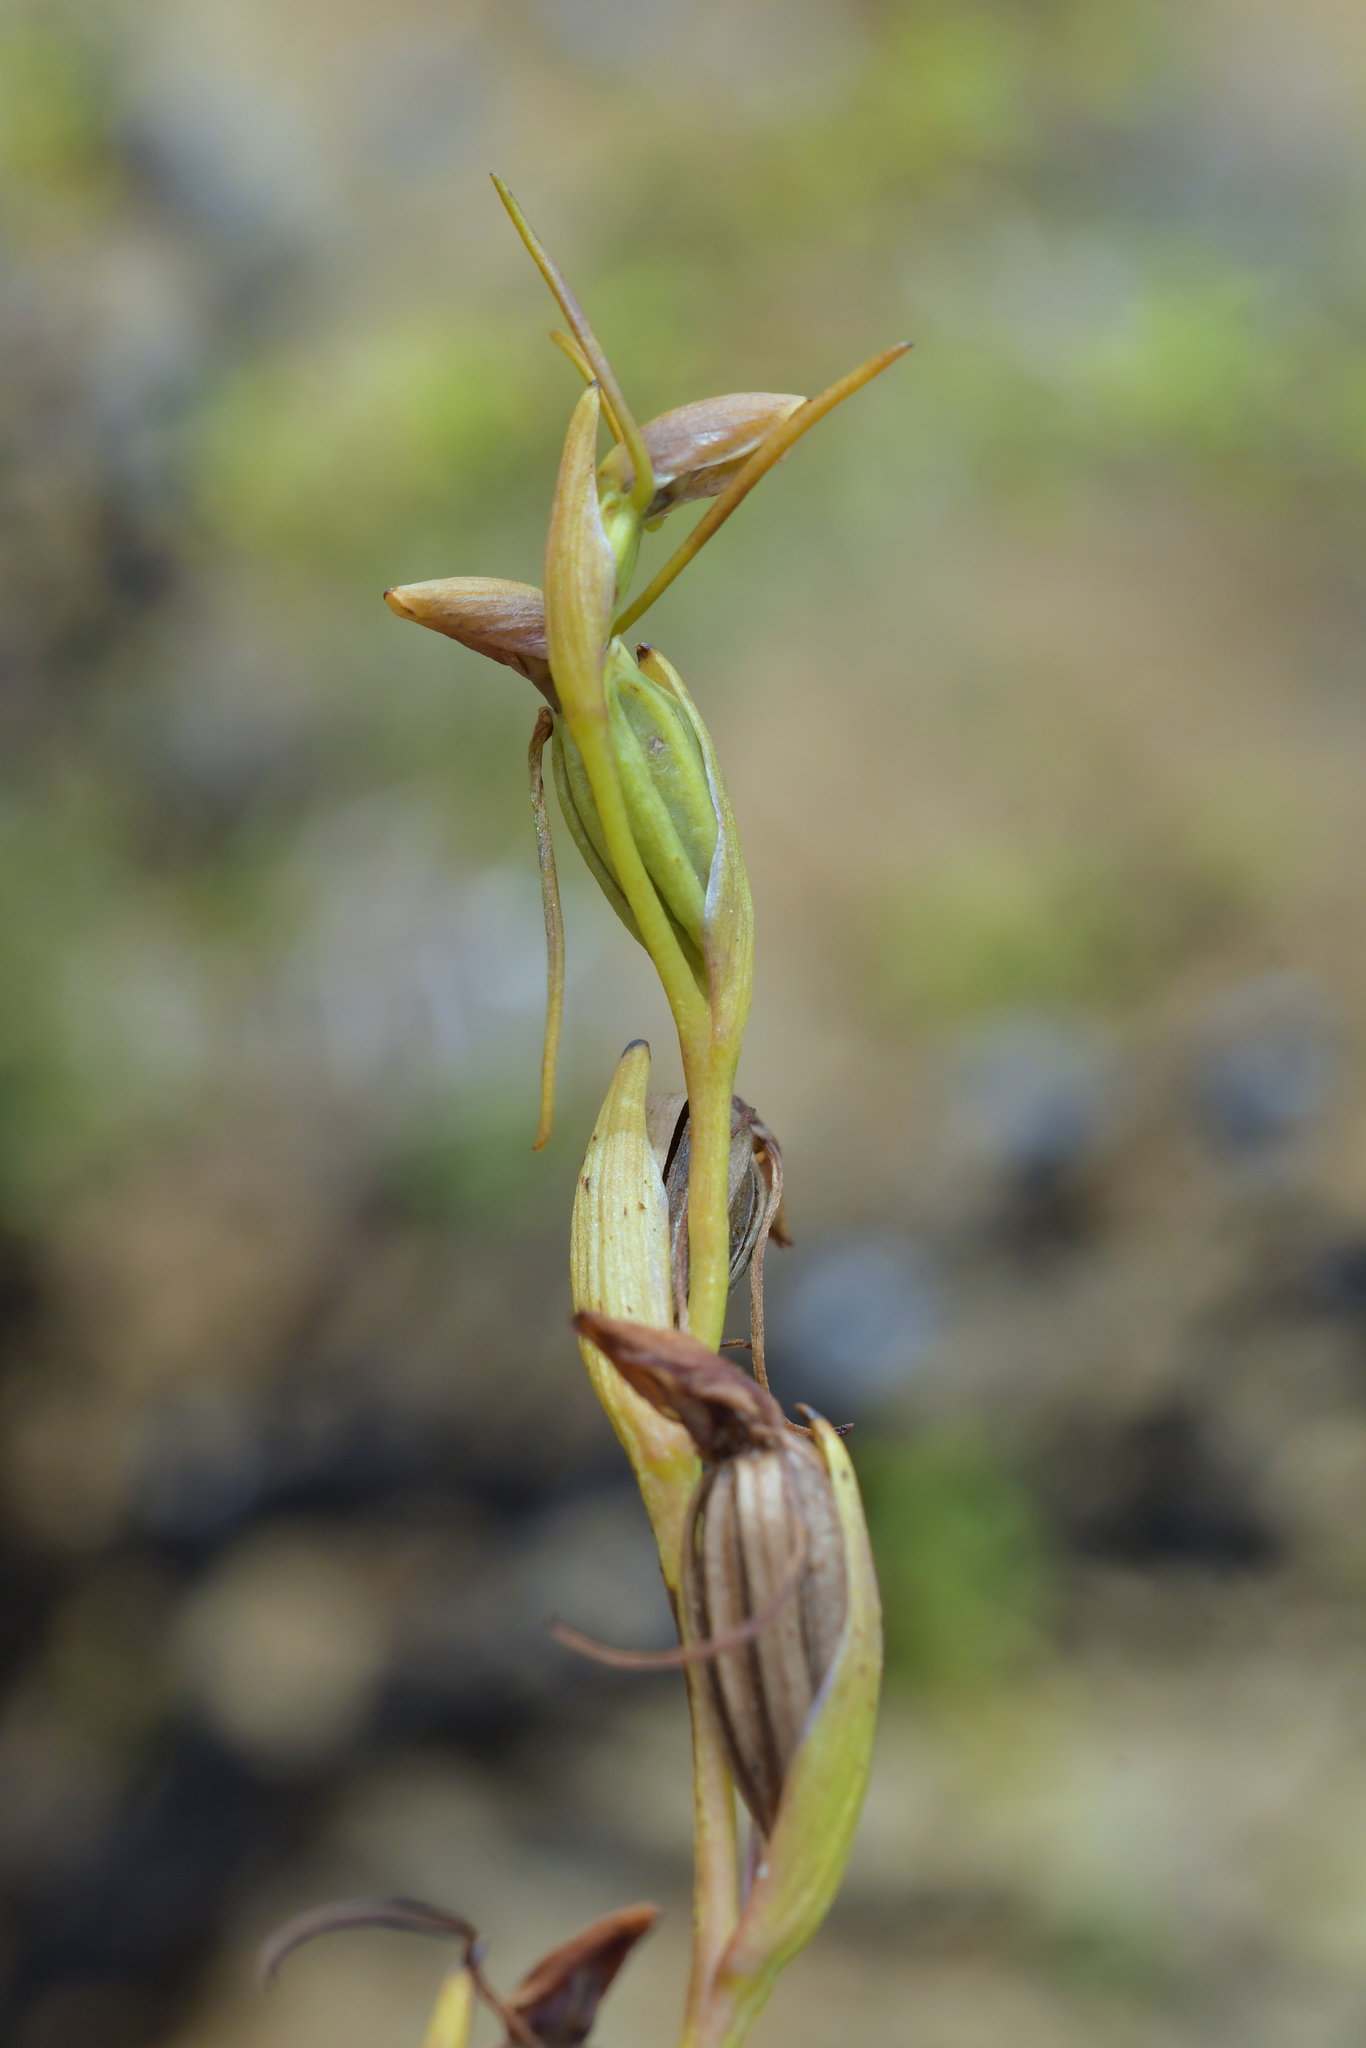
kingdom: Plantae
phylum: Tracheophyta
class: Liliopsida
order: Asparagales
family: Orchidaceae
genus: Orthoceras
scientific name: Orthoceras novae-zeelandiae
